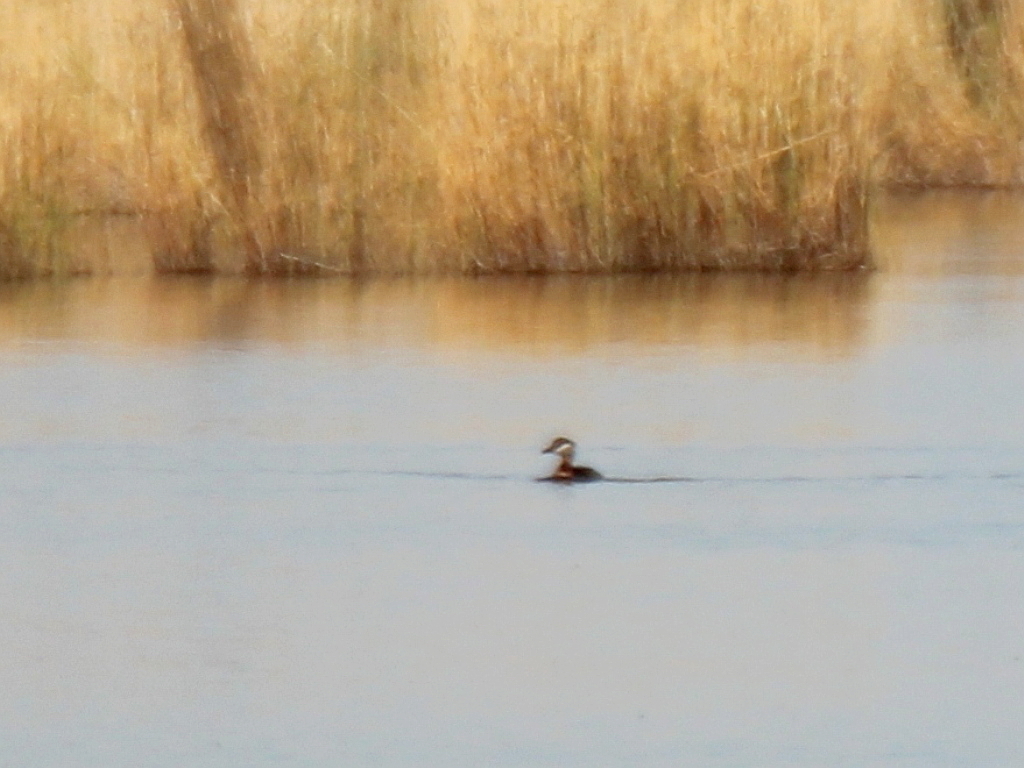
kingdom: Animalia
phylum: Chordata
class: Aves
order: Podicipediformes
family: Podicipedidae
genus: Podiceps
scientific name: Podiceps grisegena
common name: Red-necked grebe
